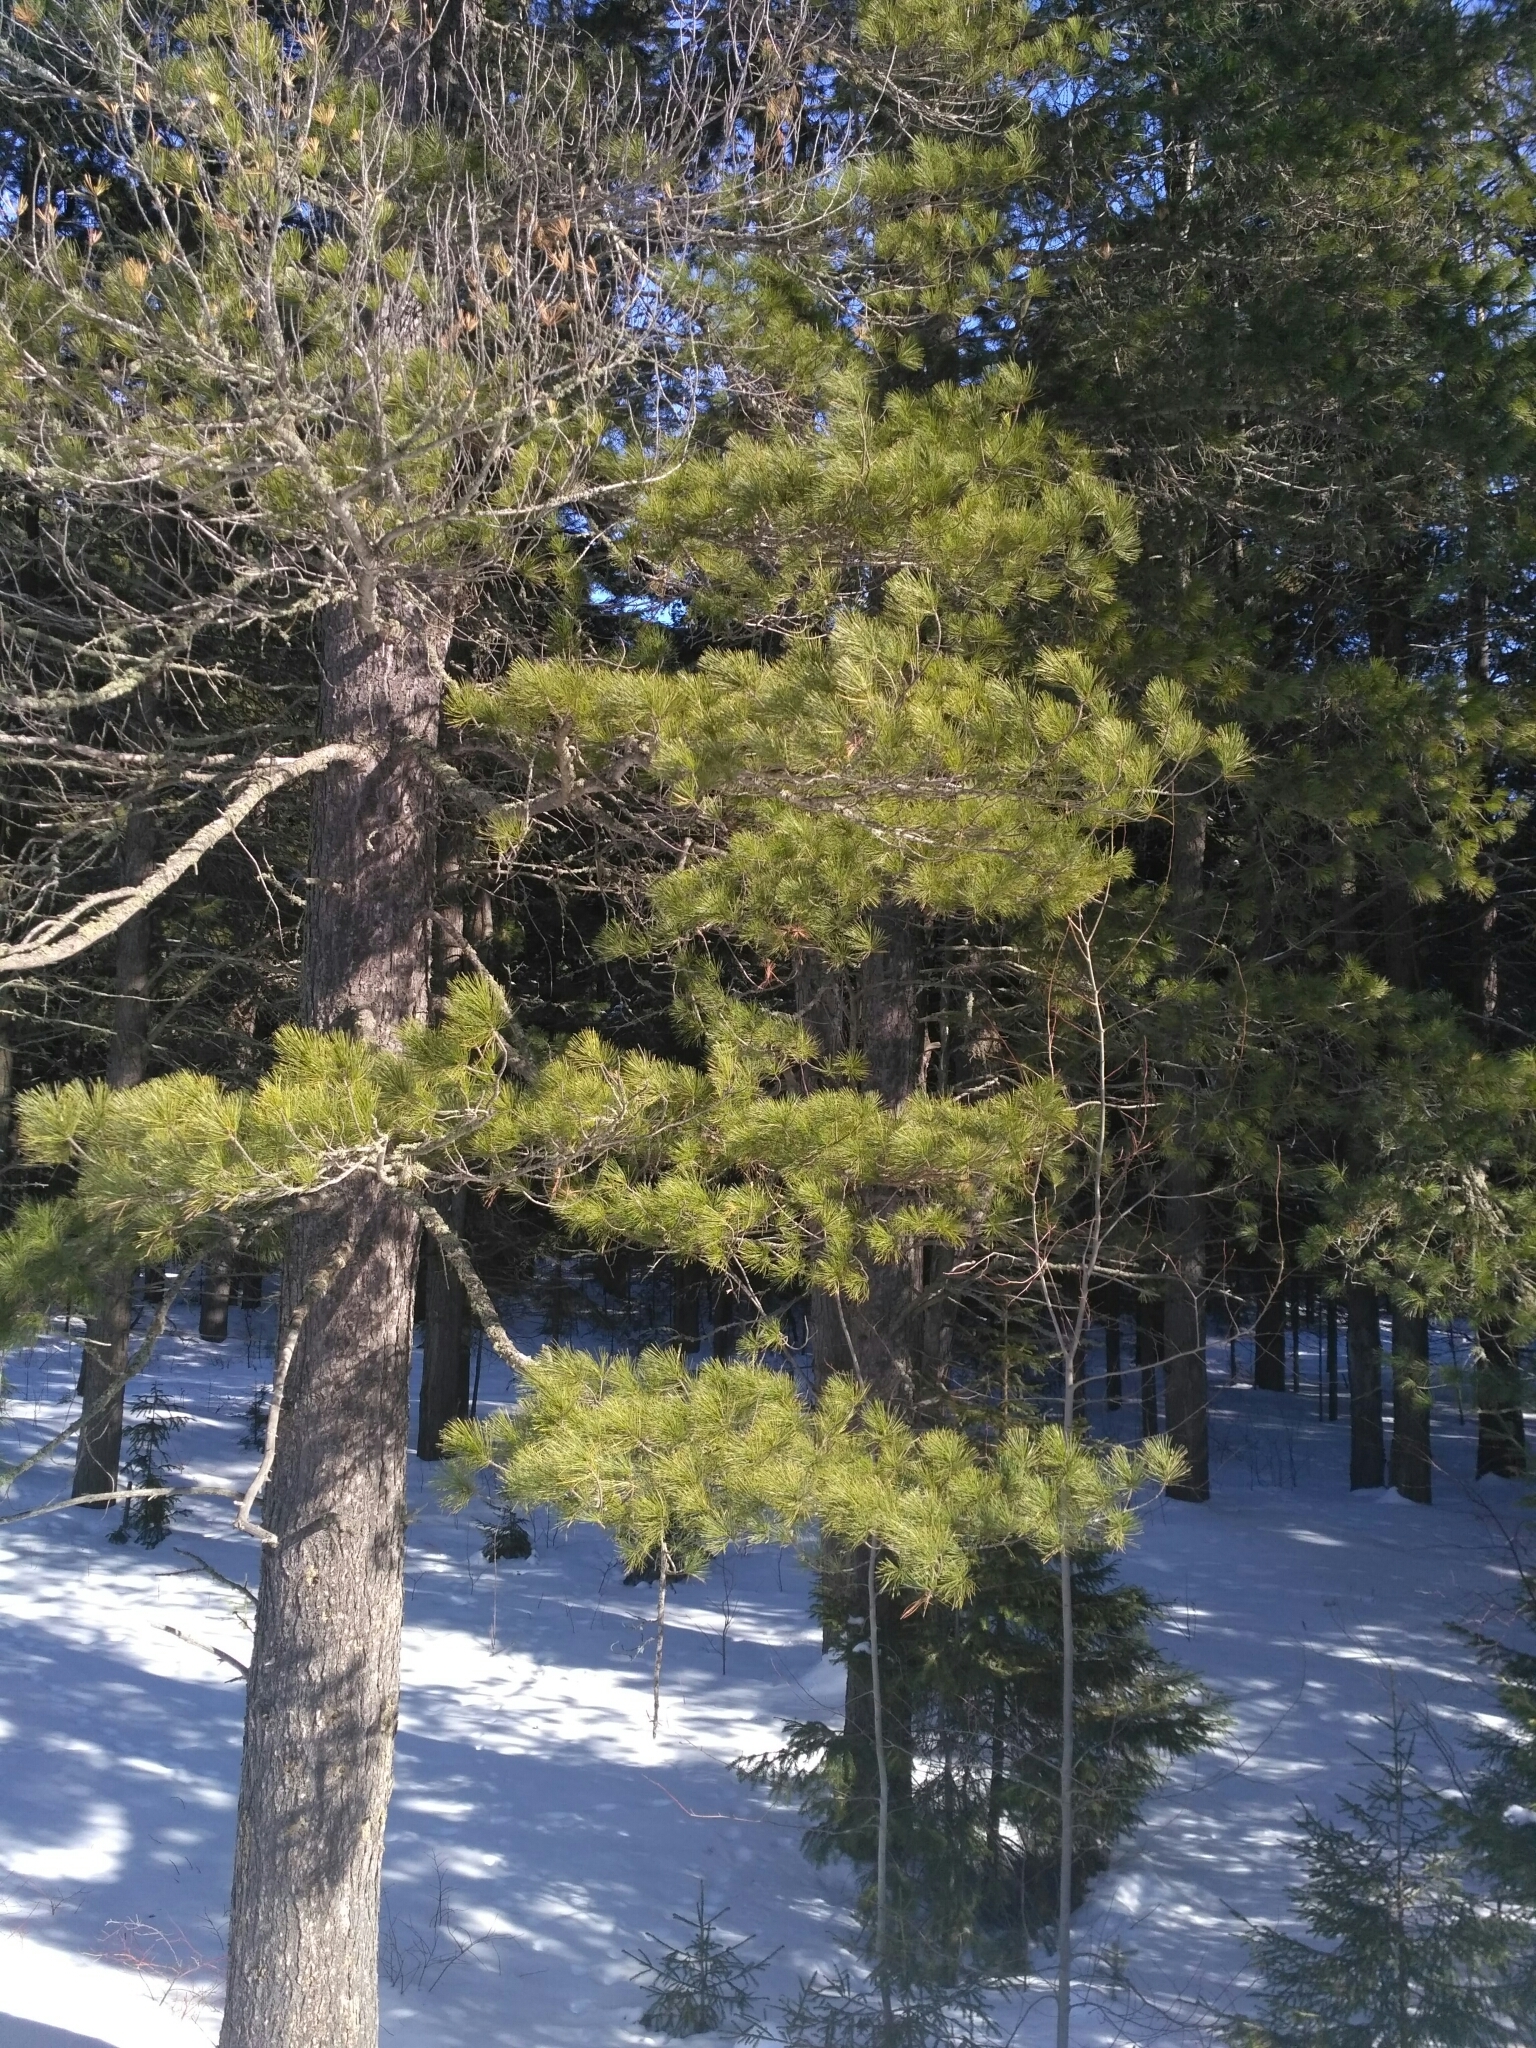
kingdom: Plantae
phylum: Tracheophyta
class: Pinopsida
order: Pinales
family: Pinaceae
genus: Pinus
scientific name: Pinus sibirica
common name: Siberian pine
